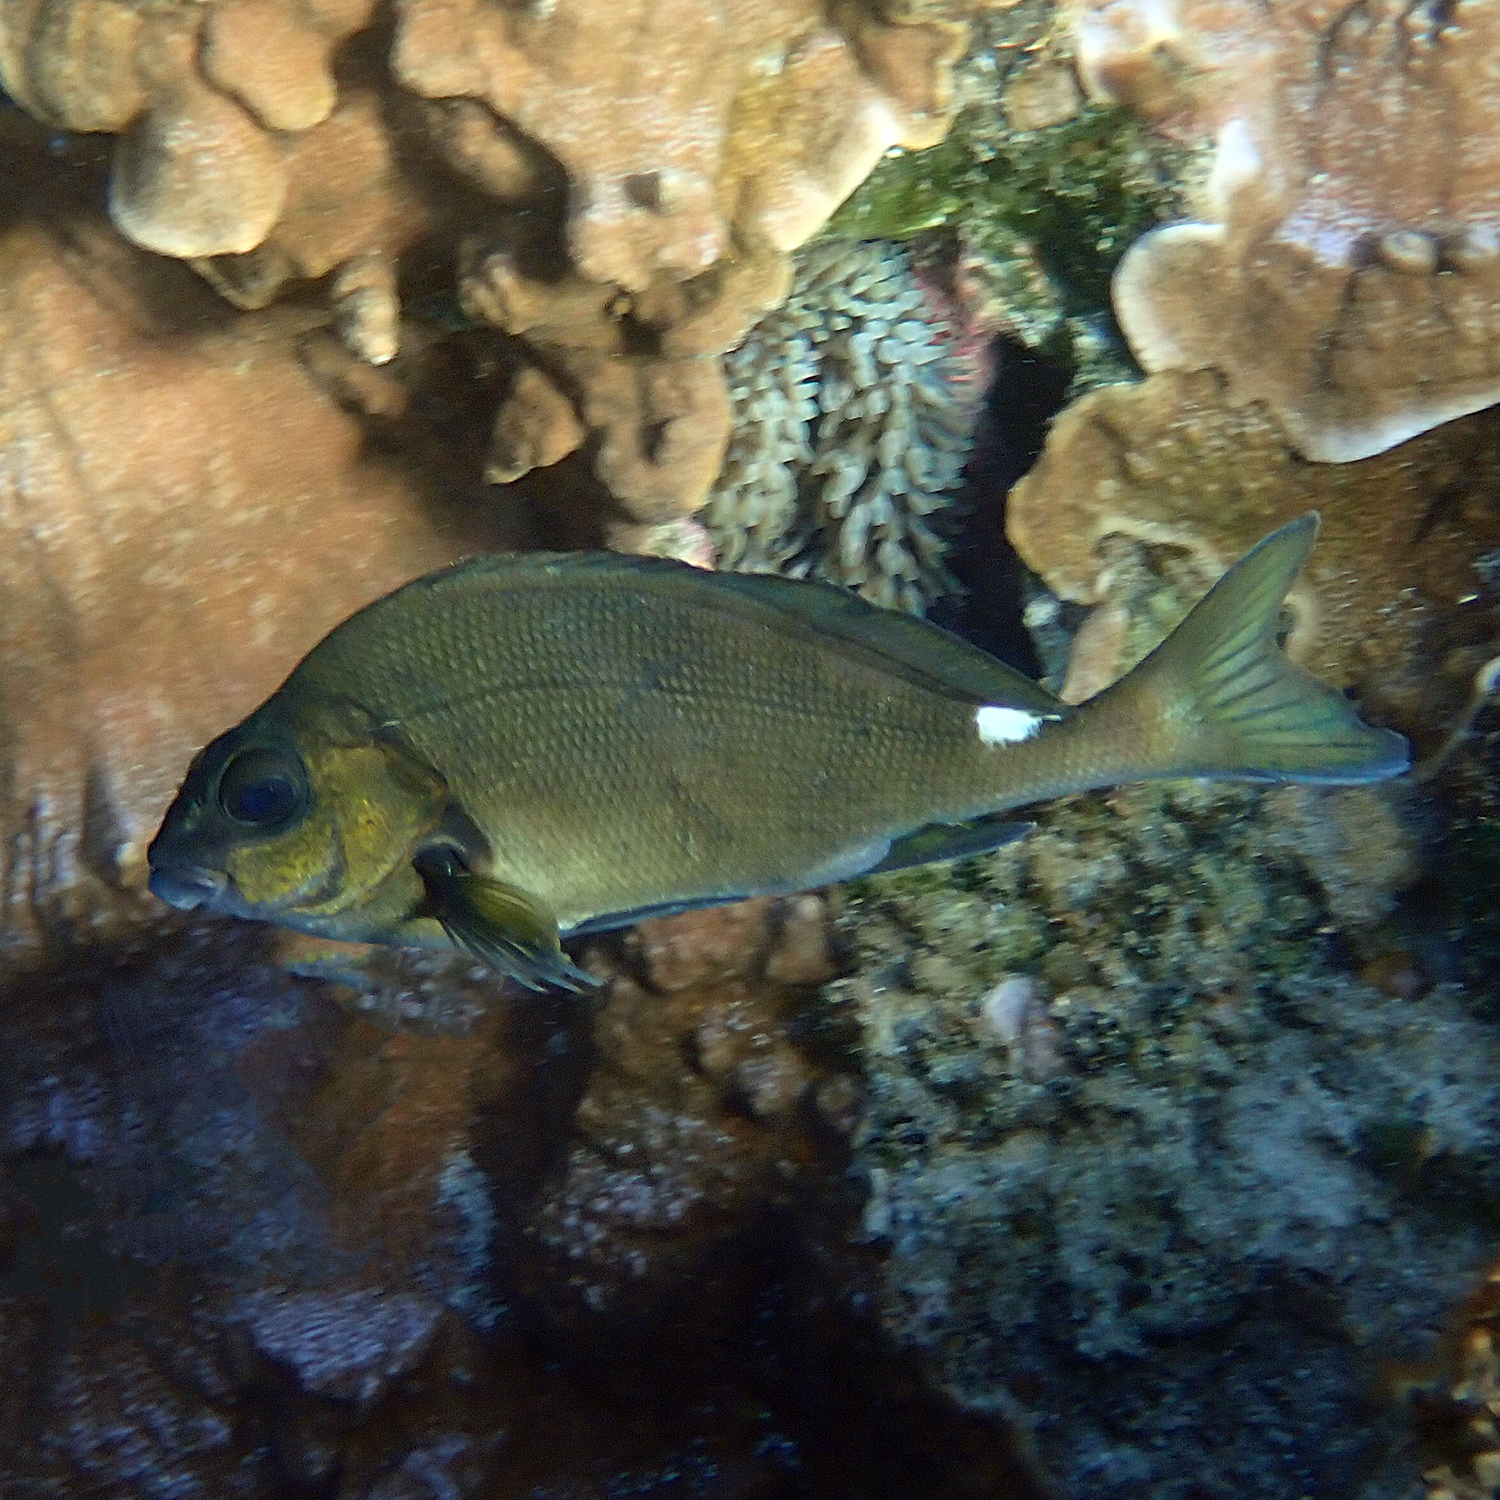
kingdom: Animalia
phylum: Chordata
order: Perciformes
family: Latridae
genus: Morwong
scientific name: Morwong ephippium
